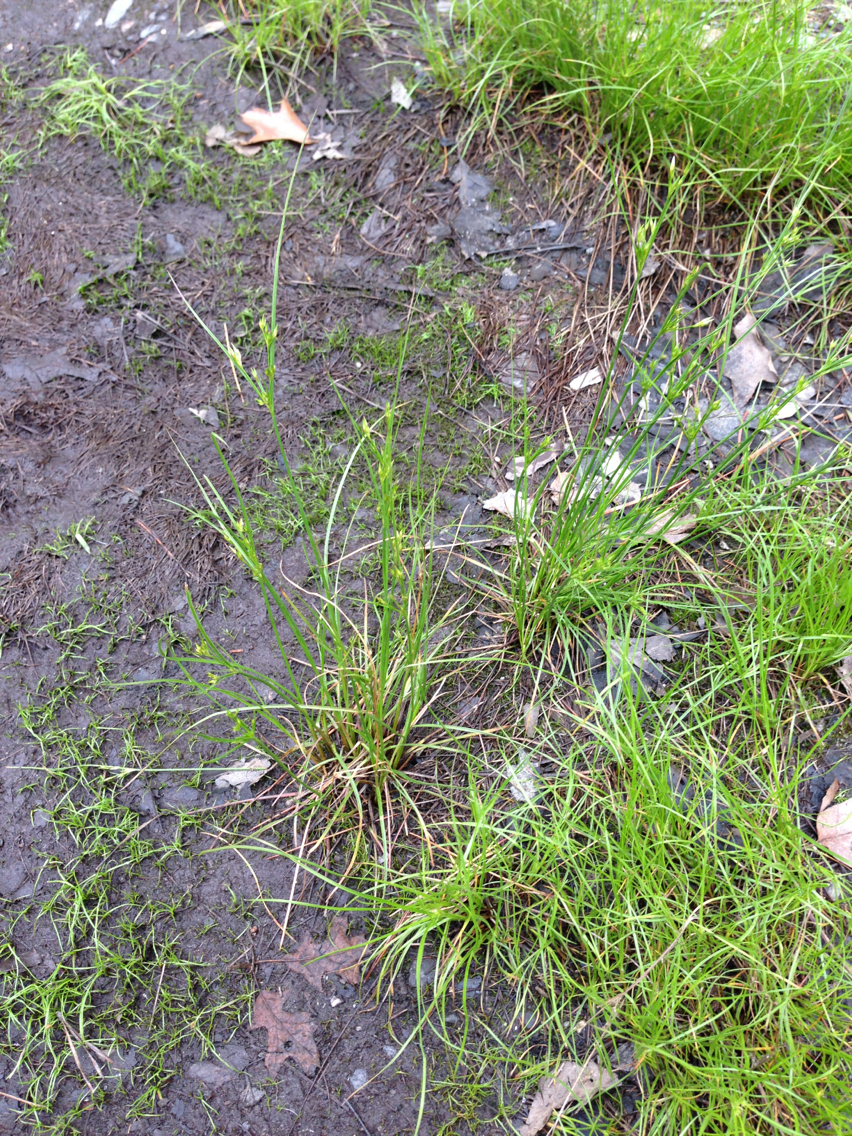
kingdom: Plantae
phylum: Tracheophyta
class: Liliopsida
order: Poales
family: Juncaceae
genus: Juncus
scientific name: Juncus tenuis
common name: Slender rush
